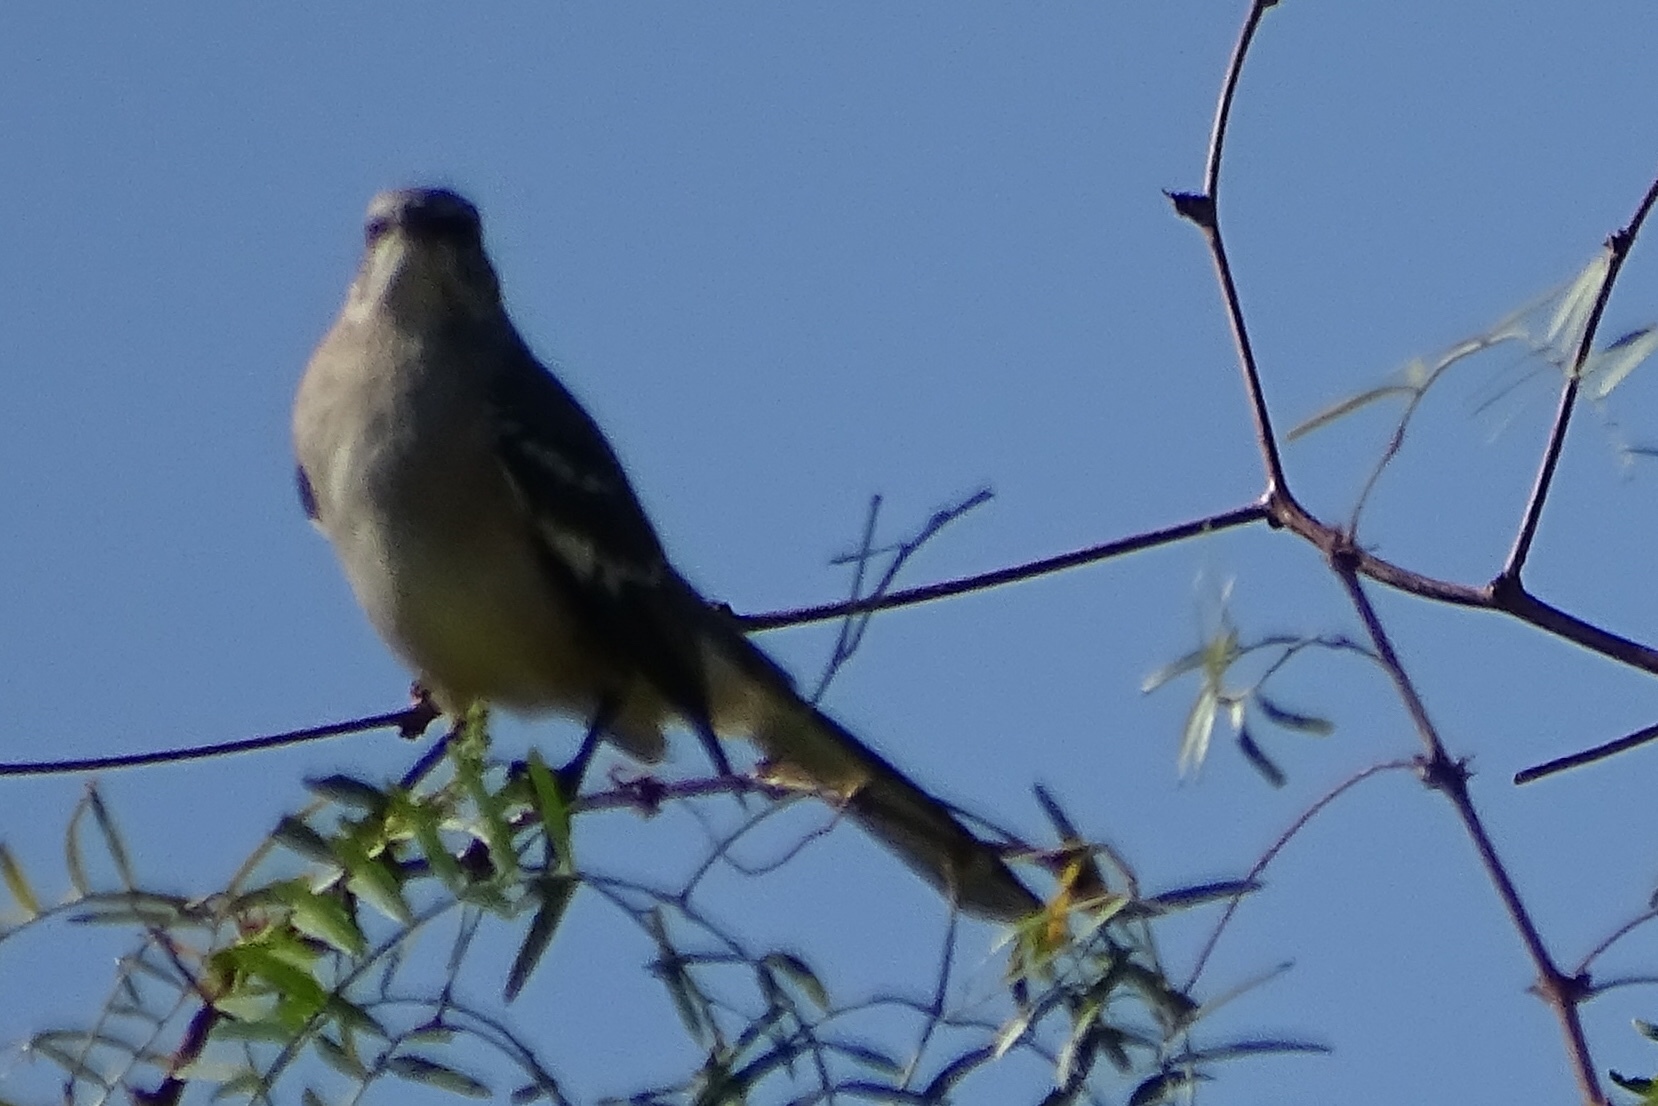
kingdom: Animalia
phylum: Chordata
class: Aves
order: Passeriformes
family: Mimidae
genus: Mimus
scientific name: Mimus polyglottos
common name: Northern mockingbird
